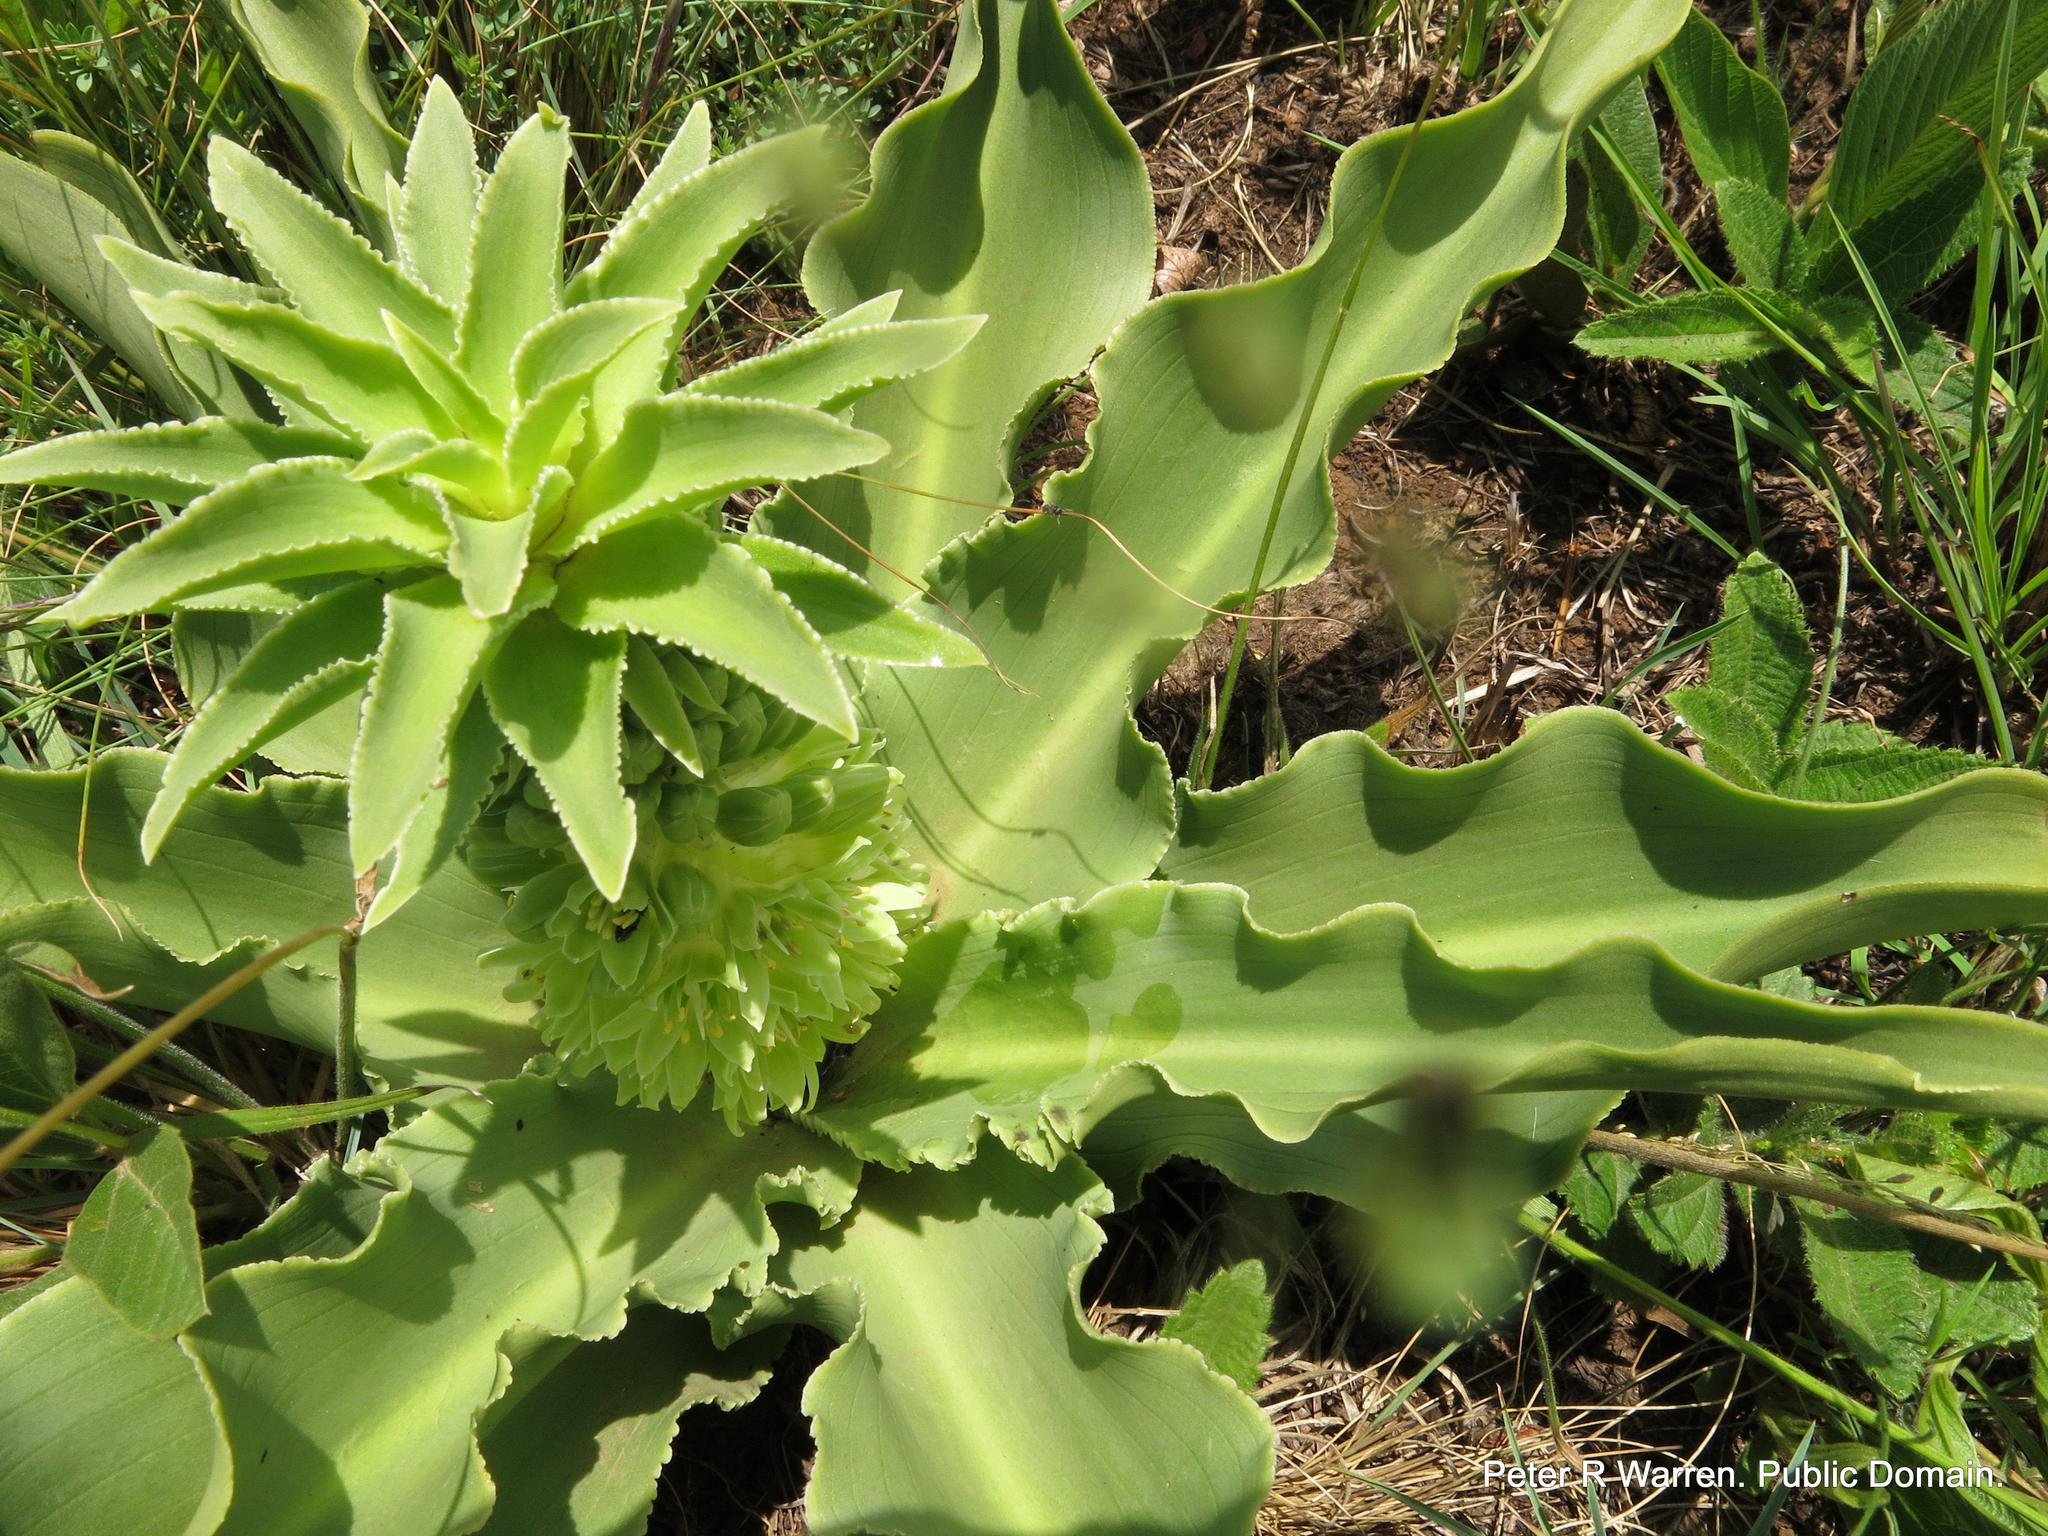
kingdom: Plantae
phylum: Tracheophyta
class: Liliopsida
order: Asparagales
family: Asparagaceae
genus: Eucomis
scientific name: Eucomis autumnalis
